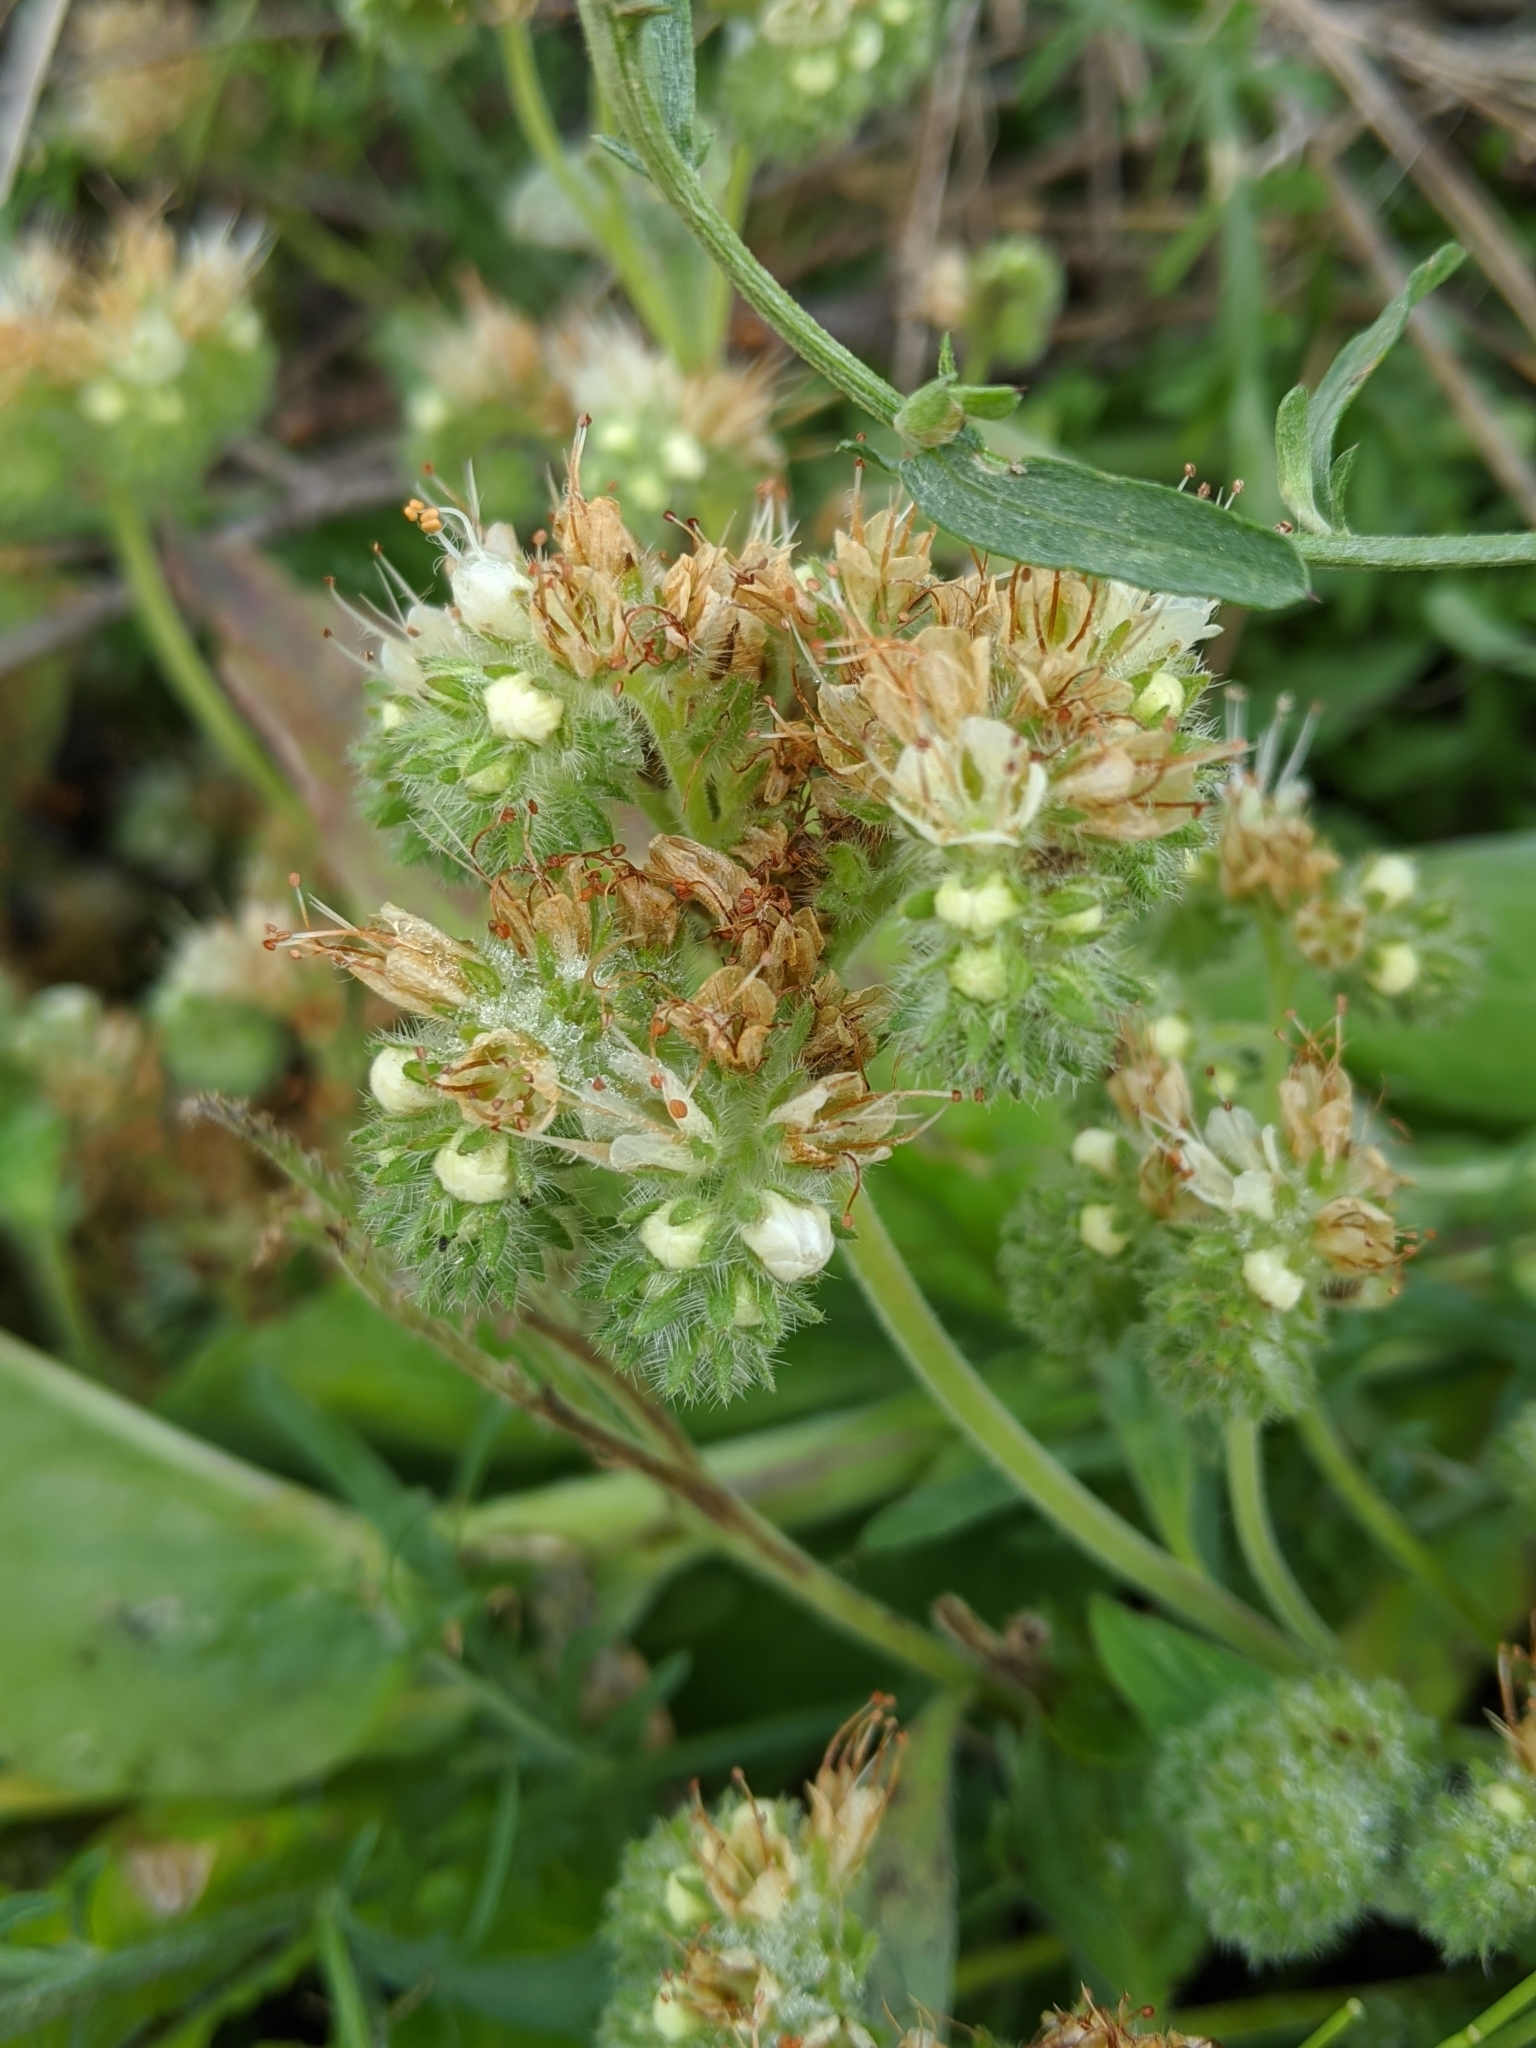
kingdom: Plantae
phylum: Tracheophyta
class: Magnoliopsida
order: Boraginales
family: Hydrophyllaceae
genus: Phacelia
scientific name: Phacelia hastata
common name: Silver-leaved phacelia
